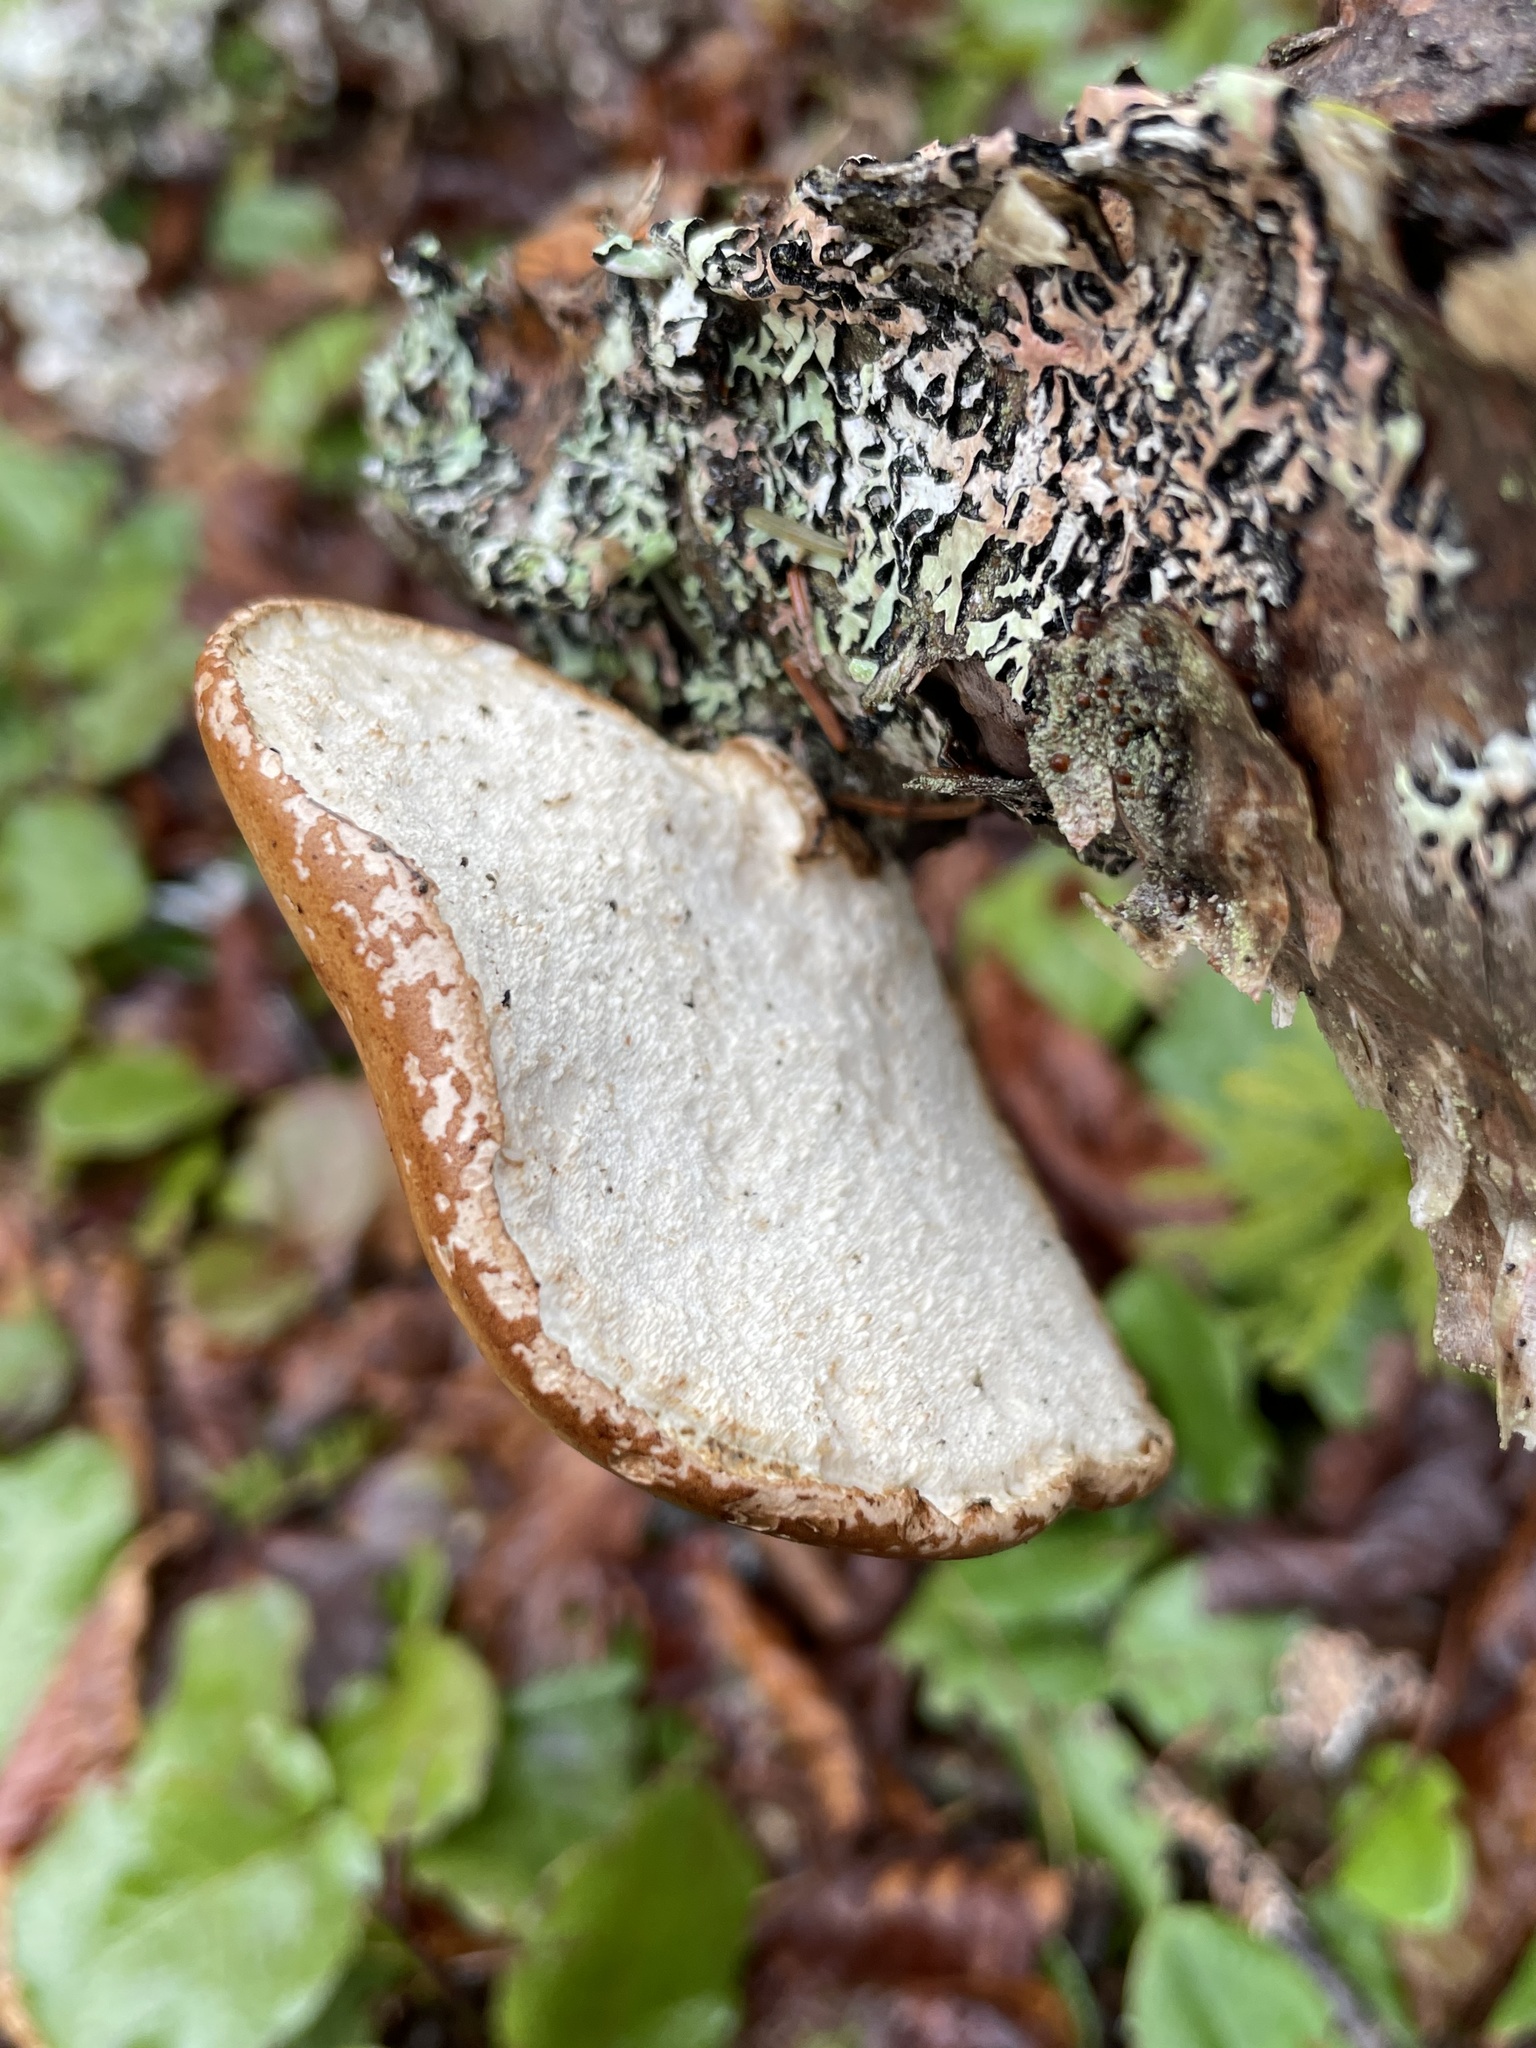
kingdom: Fungi
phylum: Basidiomycota
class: Agaricomycetes
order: Polyporales
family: Fomitopsidaceae
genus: Fomitopsis
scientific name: Fomitopsis betulina
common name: Birch polypore
